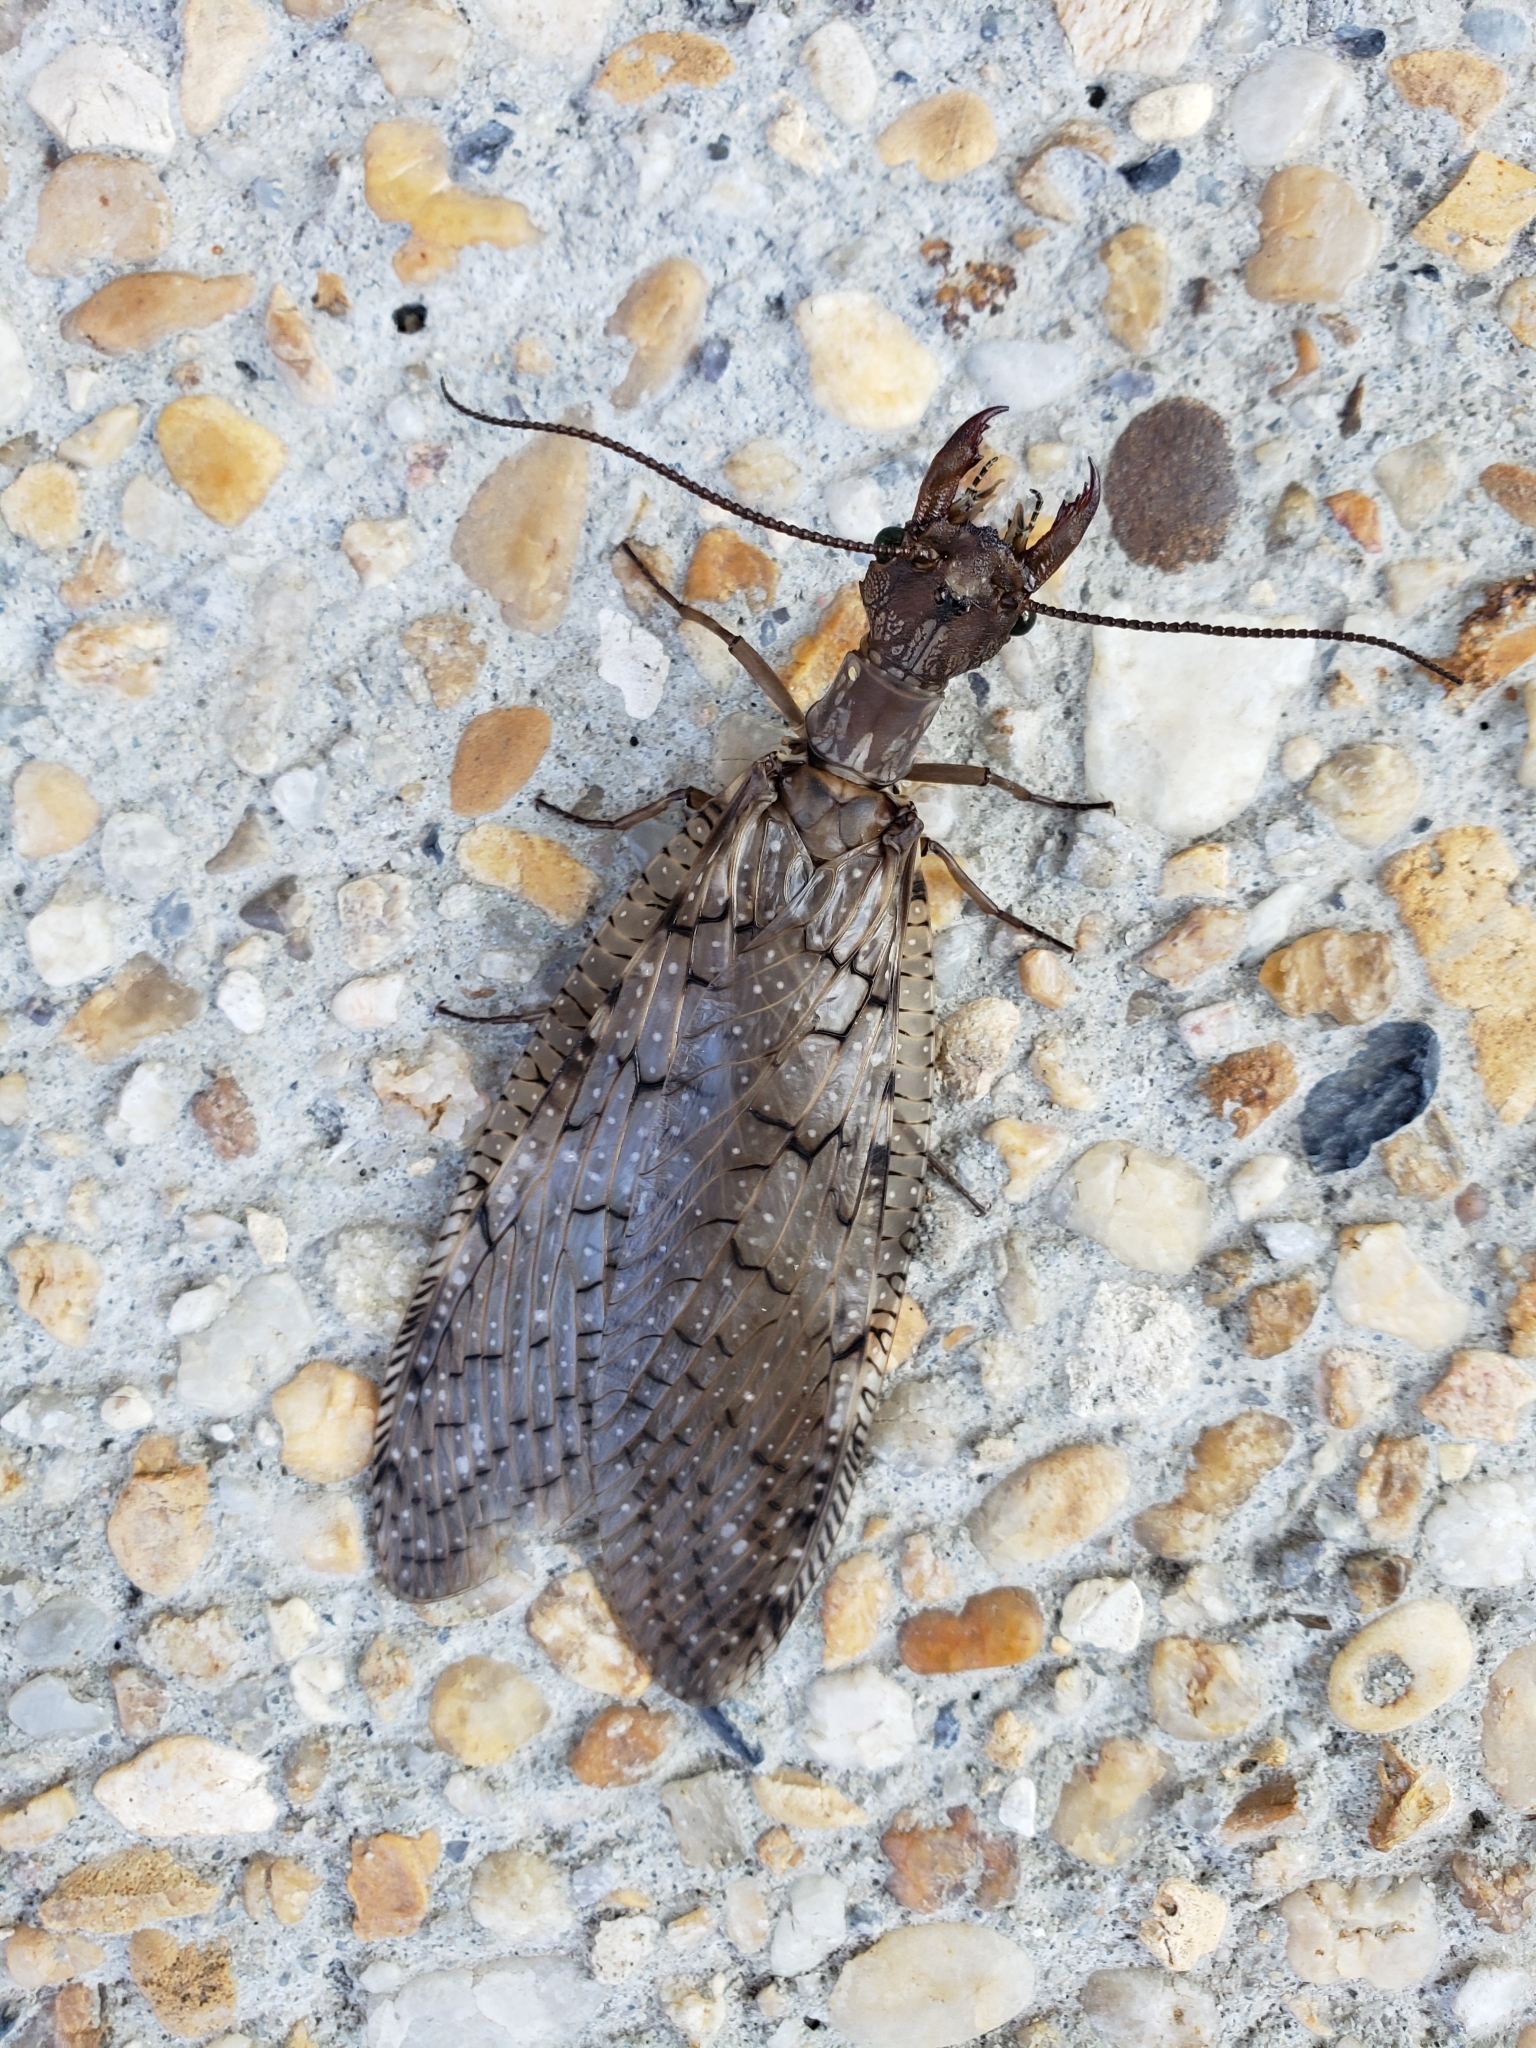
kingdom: Animalia
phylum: Arthropoda
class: Insecta
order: Megaloptera
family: Corydalidae
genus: Corydalus
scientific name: Corydalus cornutus
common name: Dobsonfly
